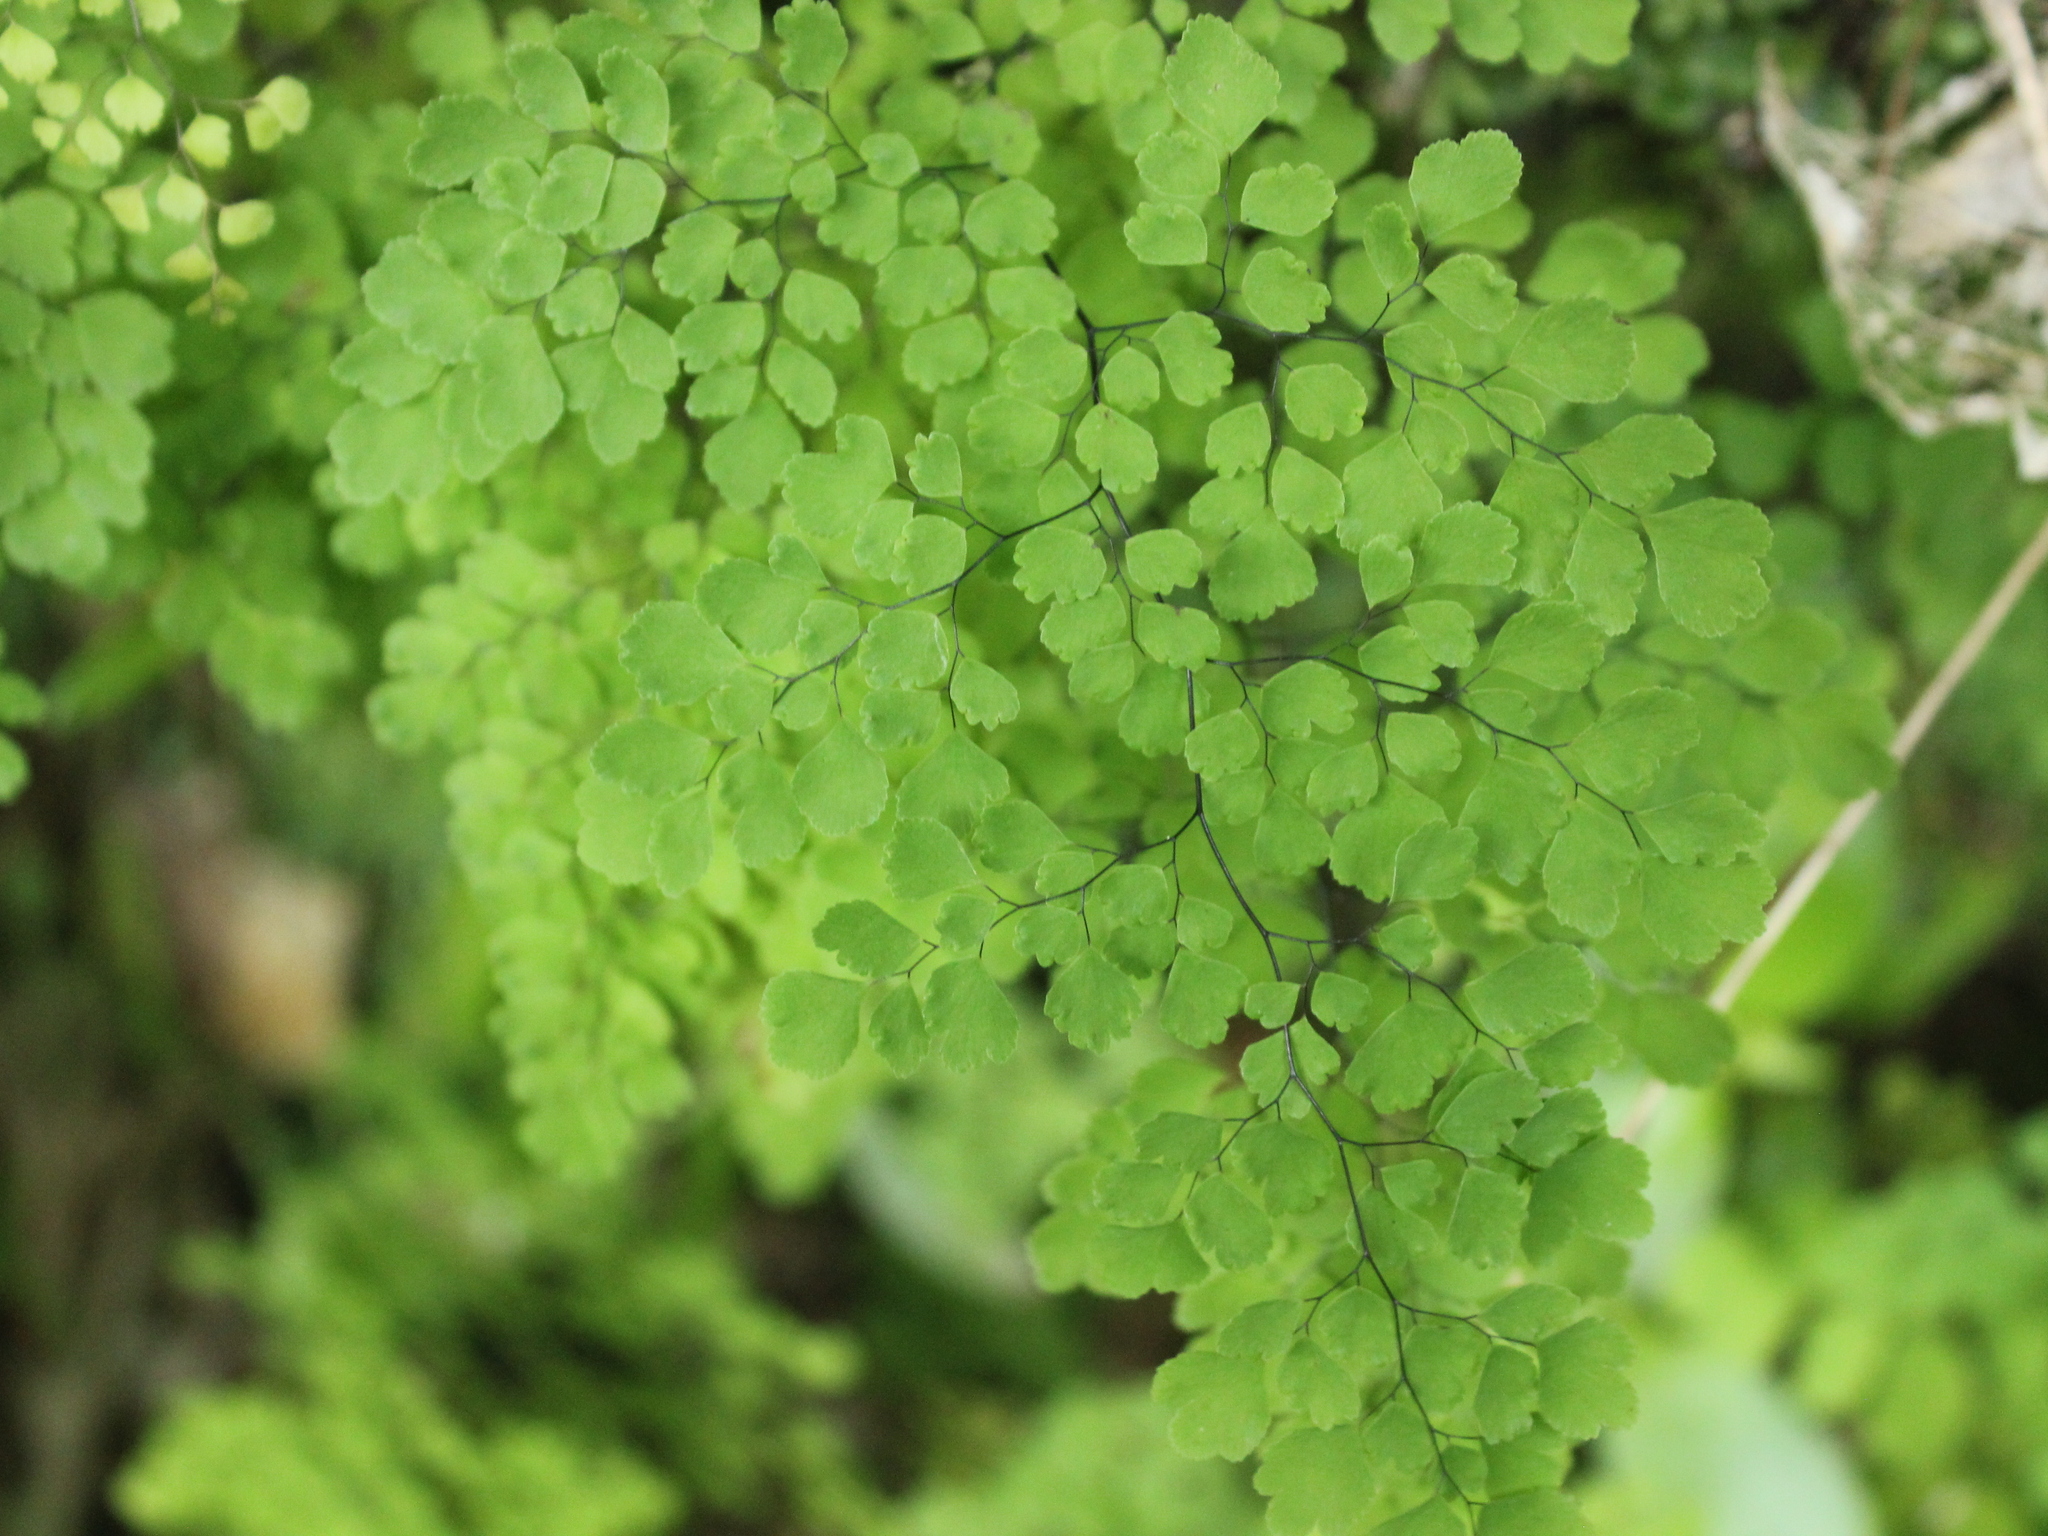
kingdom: Plantae
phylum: Tracheophyta
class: Polypodiopsida
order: Polypodiales
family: Pteridaceae
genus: Adiantum
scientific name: Adiantum raddianum
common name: Delta maidenhair fern
